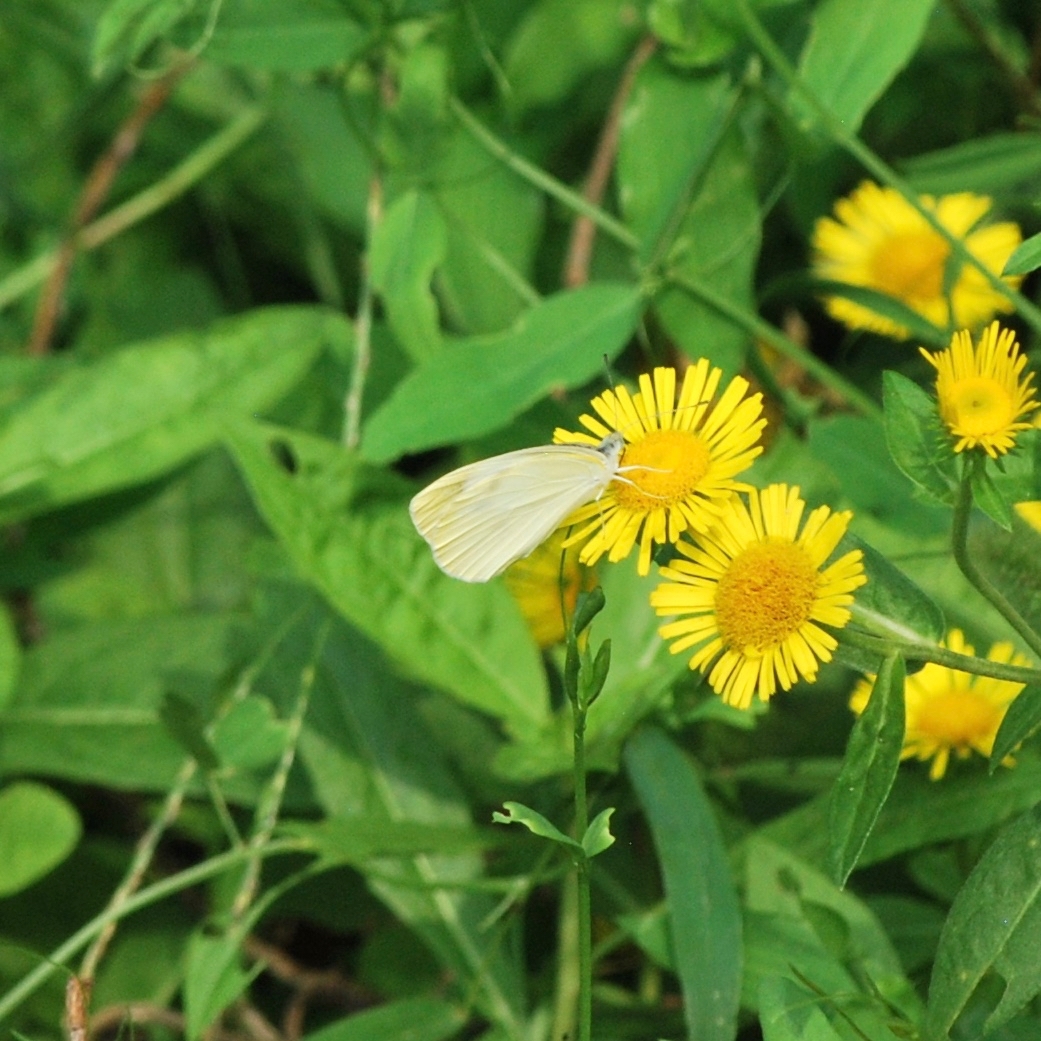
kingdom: Animalia
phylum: Arthropoda
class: Insecta
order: Lepidoptera
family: Pieridae
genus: Pieris
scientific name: Pieris rapae
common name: Small white
